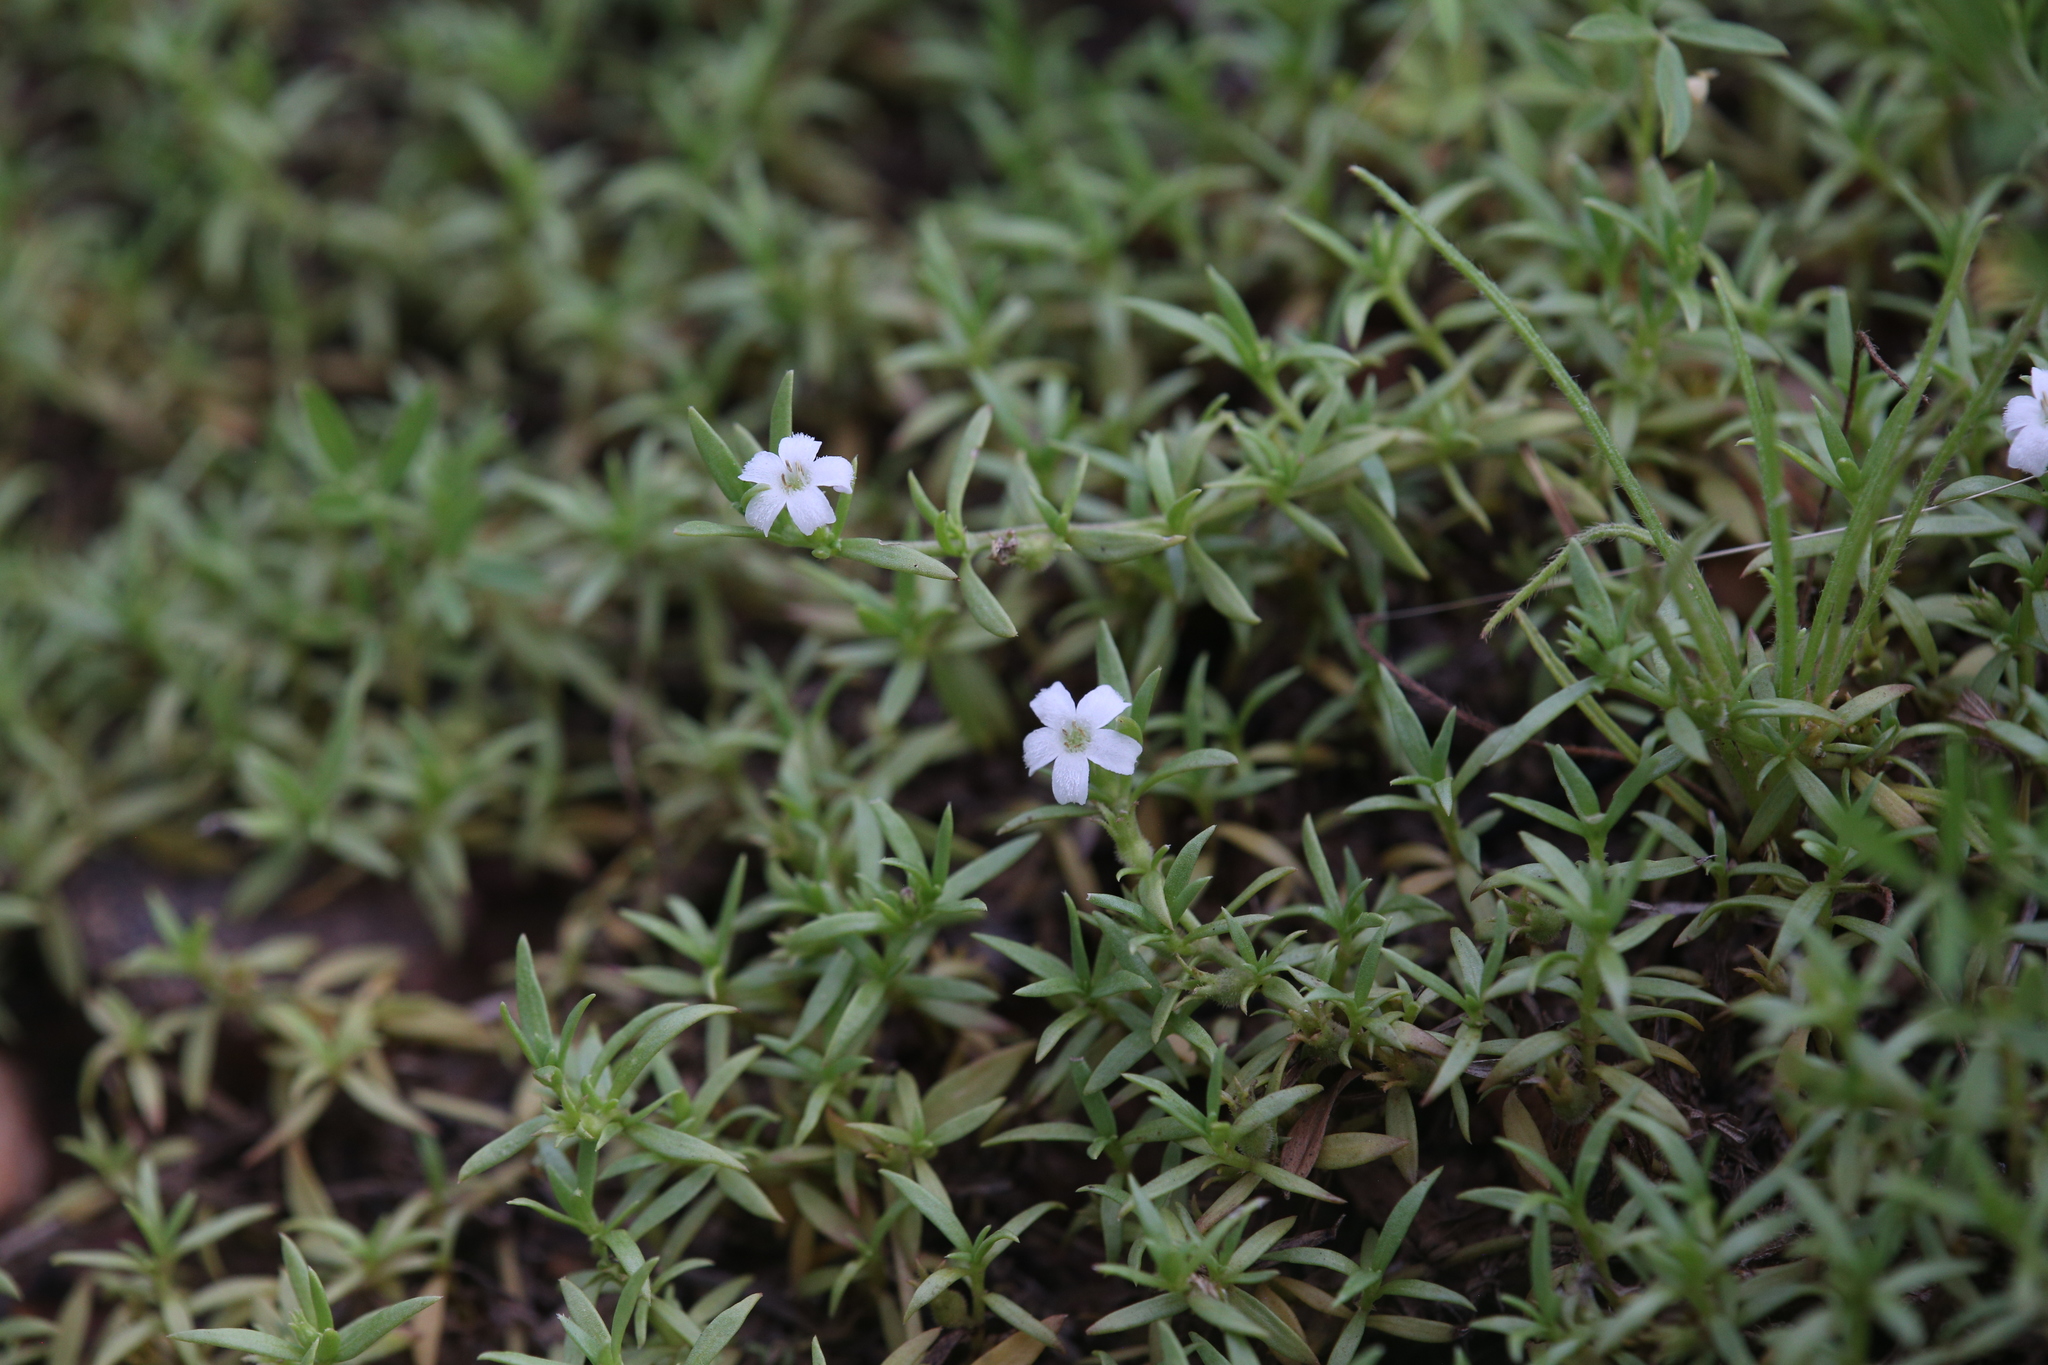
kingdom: Plantae
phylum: Tracheophyta
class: Magnoliopsida
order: Gentianales
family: Rubiaceae
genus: Dentella
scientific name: Dentella misera
